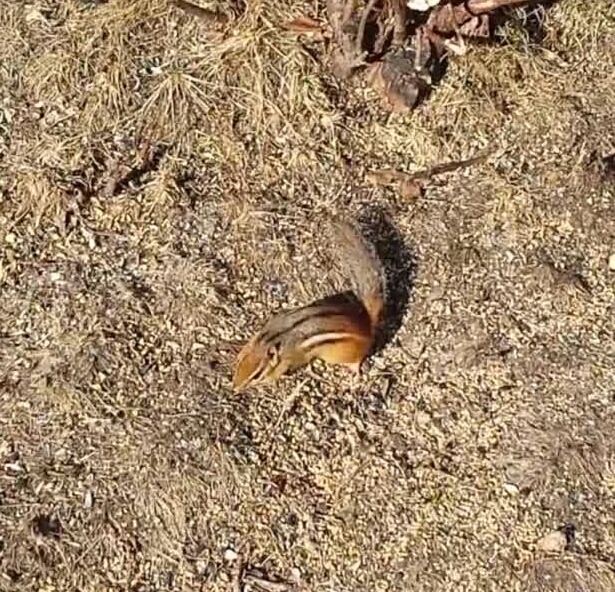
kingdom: Animalia
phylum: Chordata
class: Mammalia
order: Rodentia
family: Sciuridae
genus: Tamias
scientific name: Tamias striatus
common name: Eastern chipmunk
